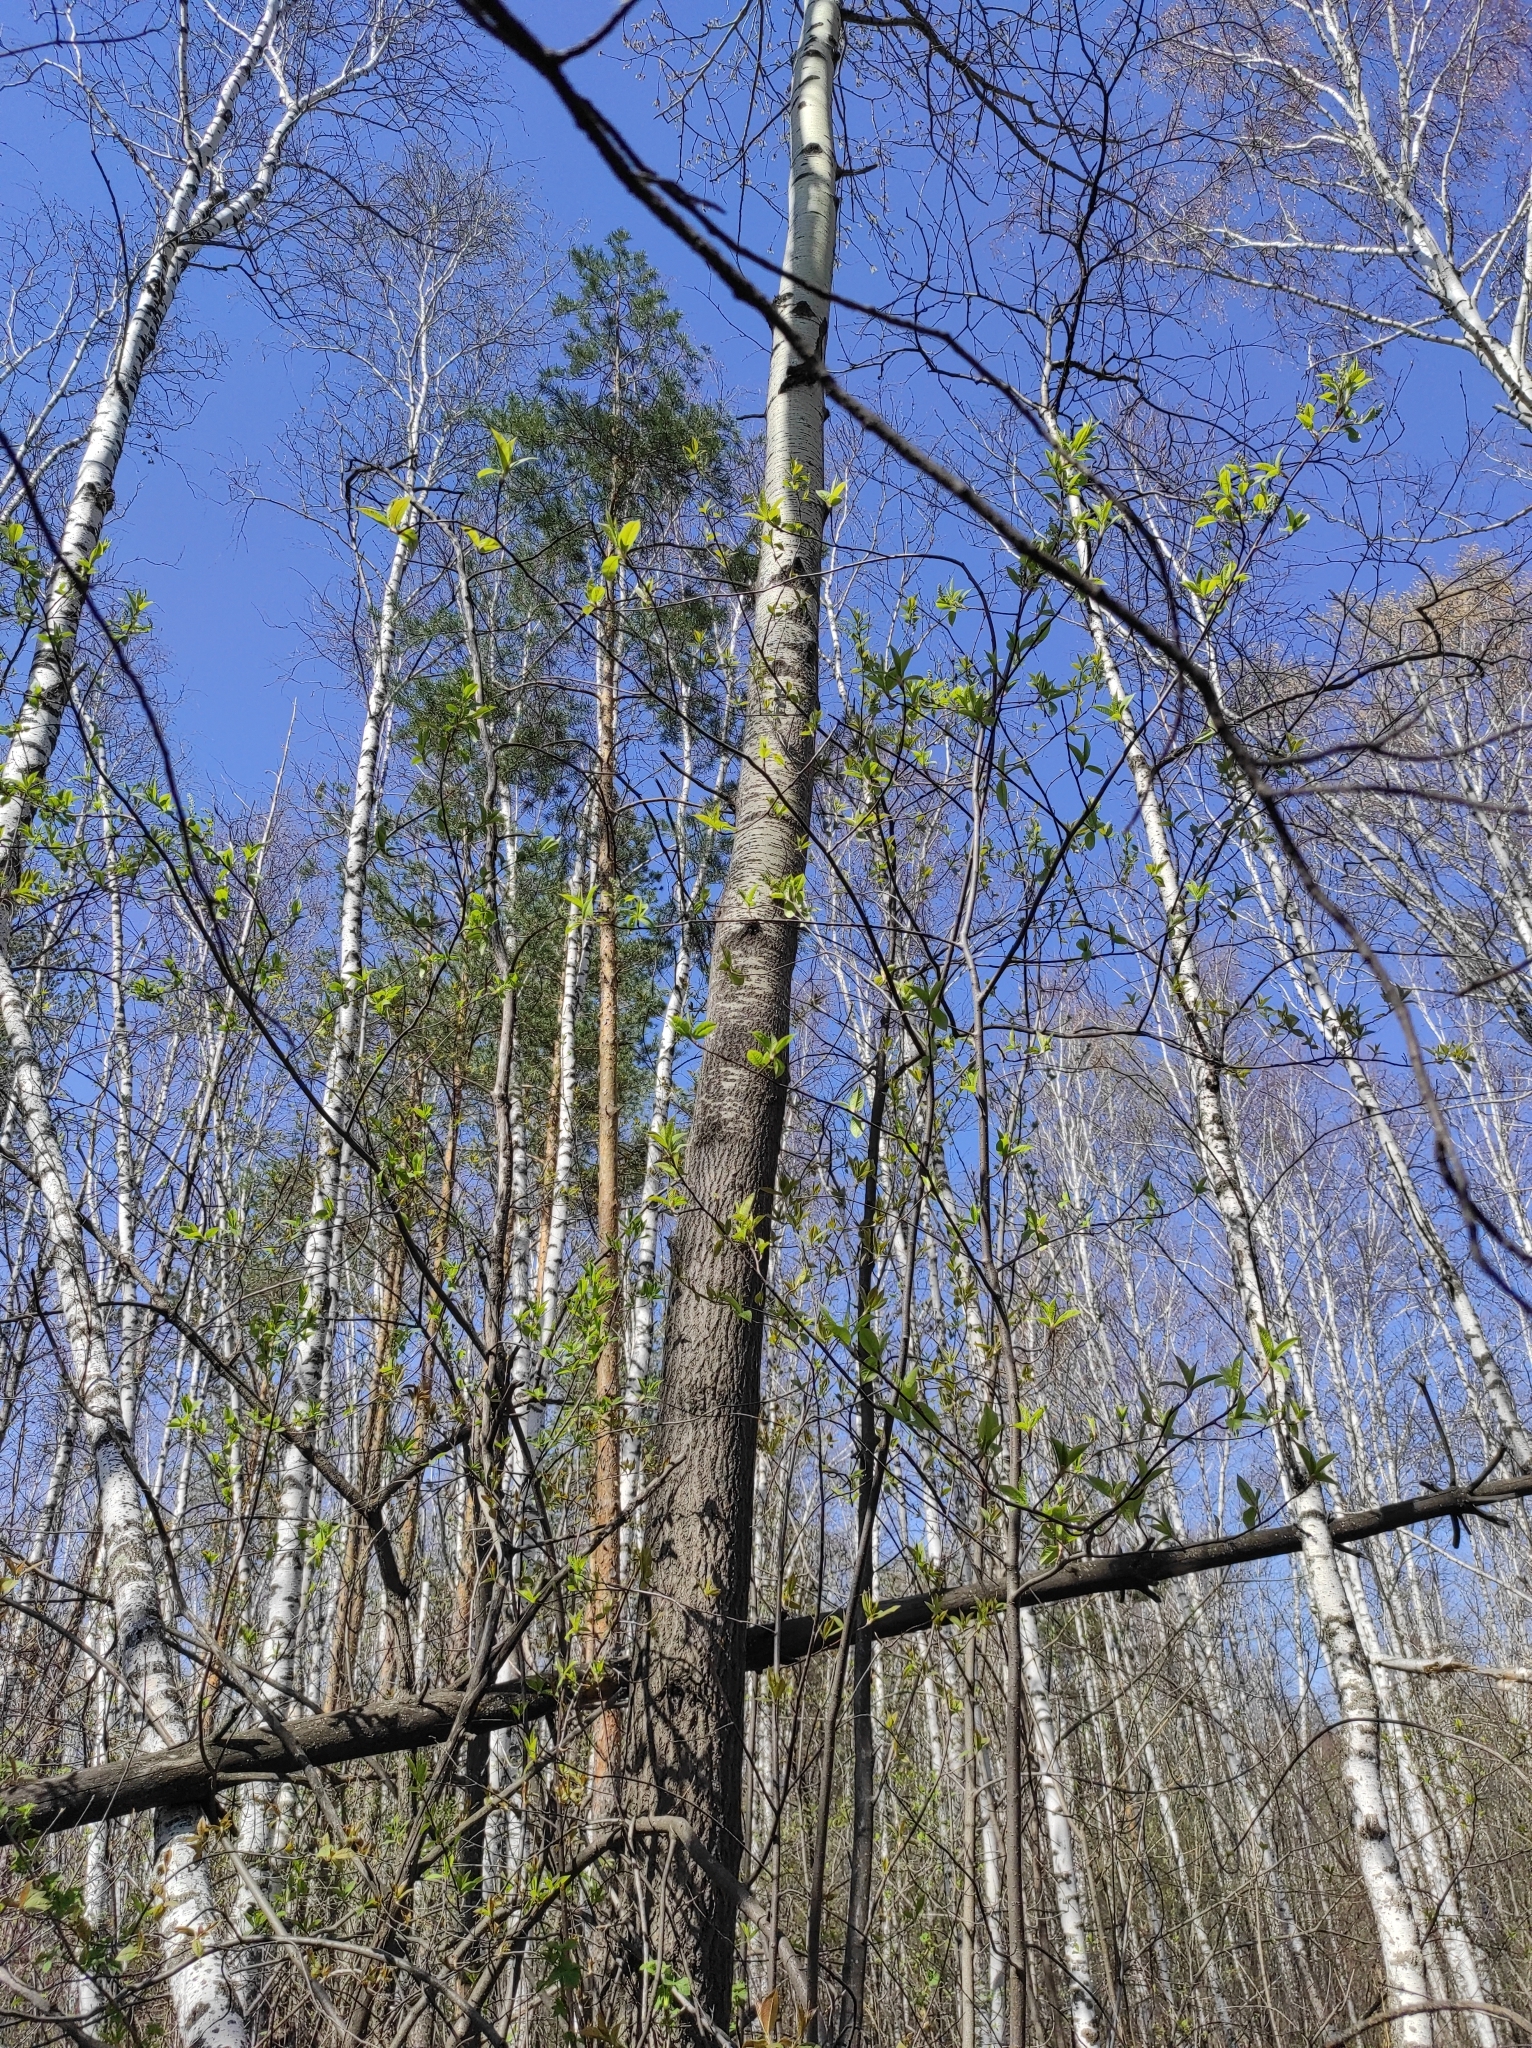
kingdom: Plantae
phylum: Tracheophyta
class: Pinopsida
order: Pinales
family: Pinaceae
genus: Pinus
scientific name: Pinus sylvestris
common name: Scots pine
